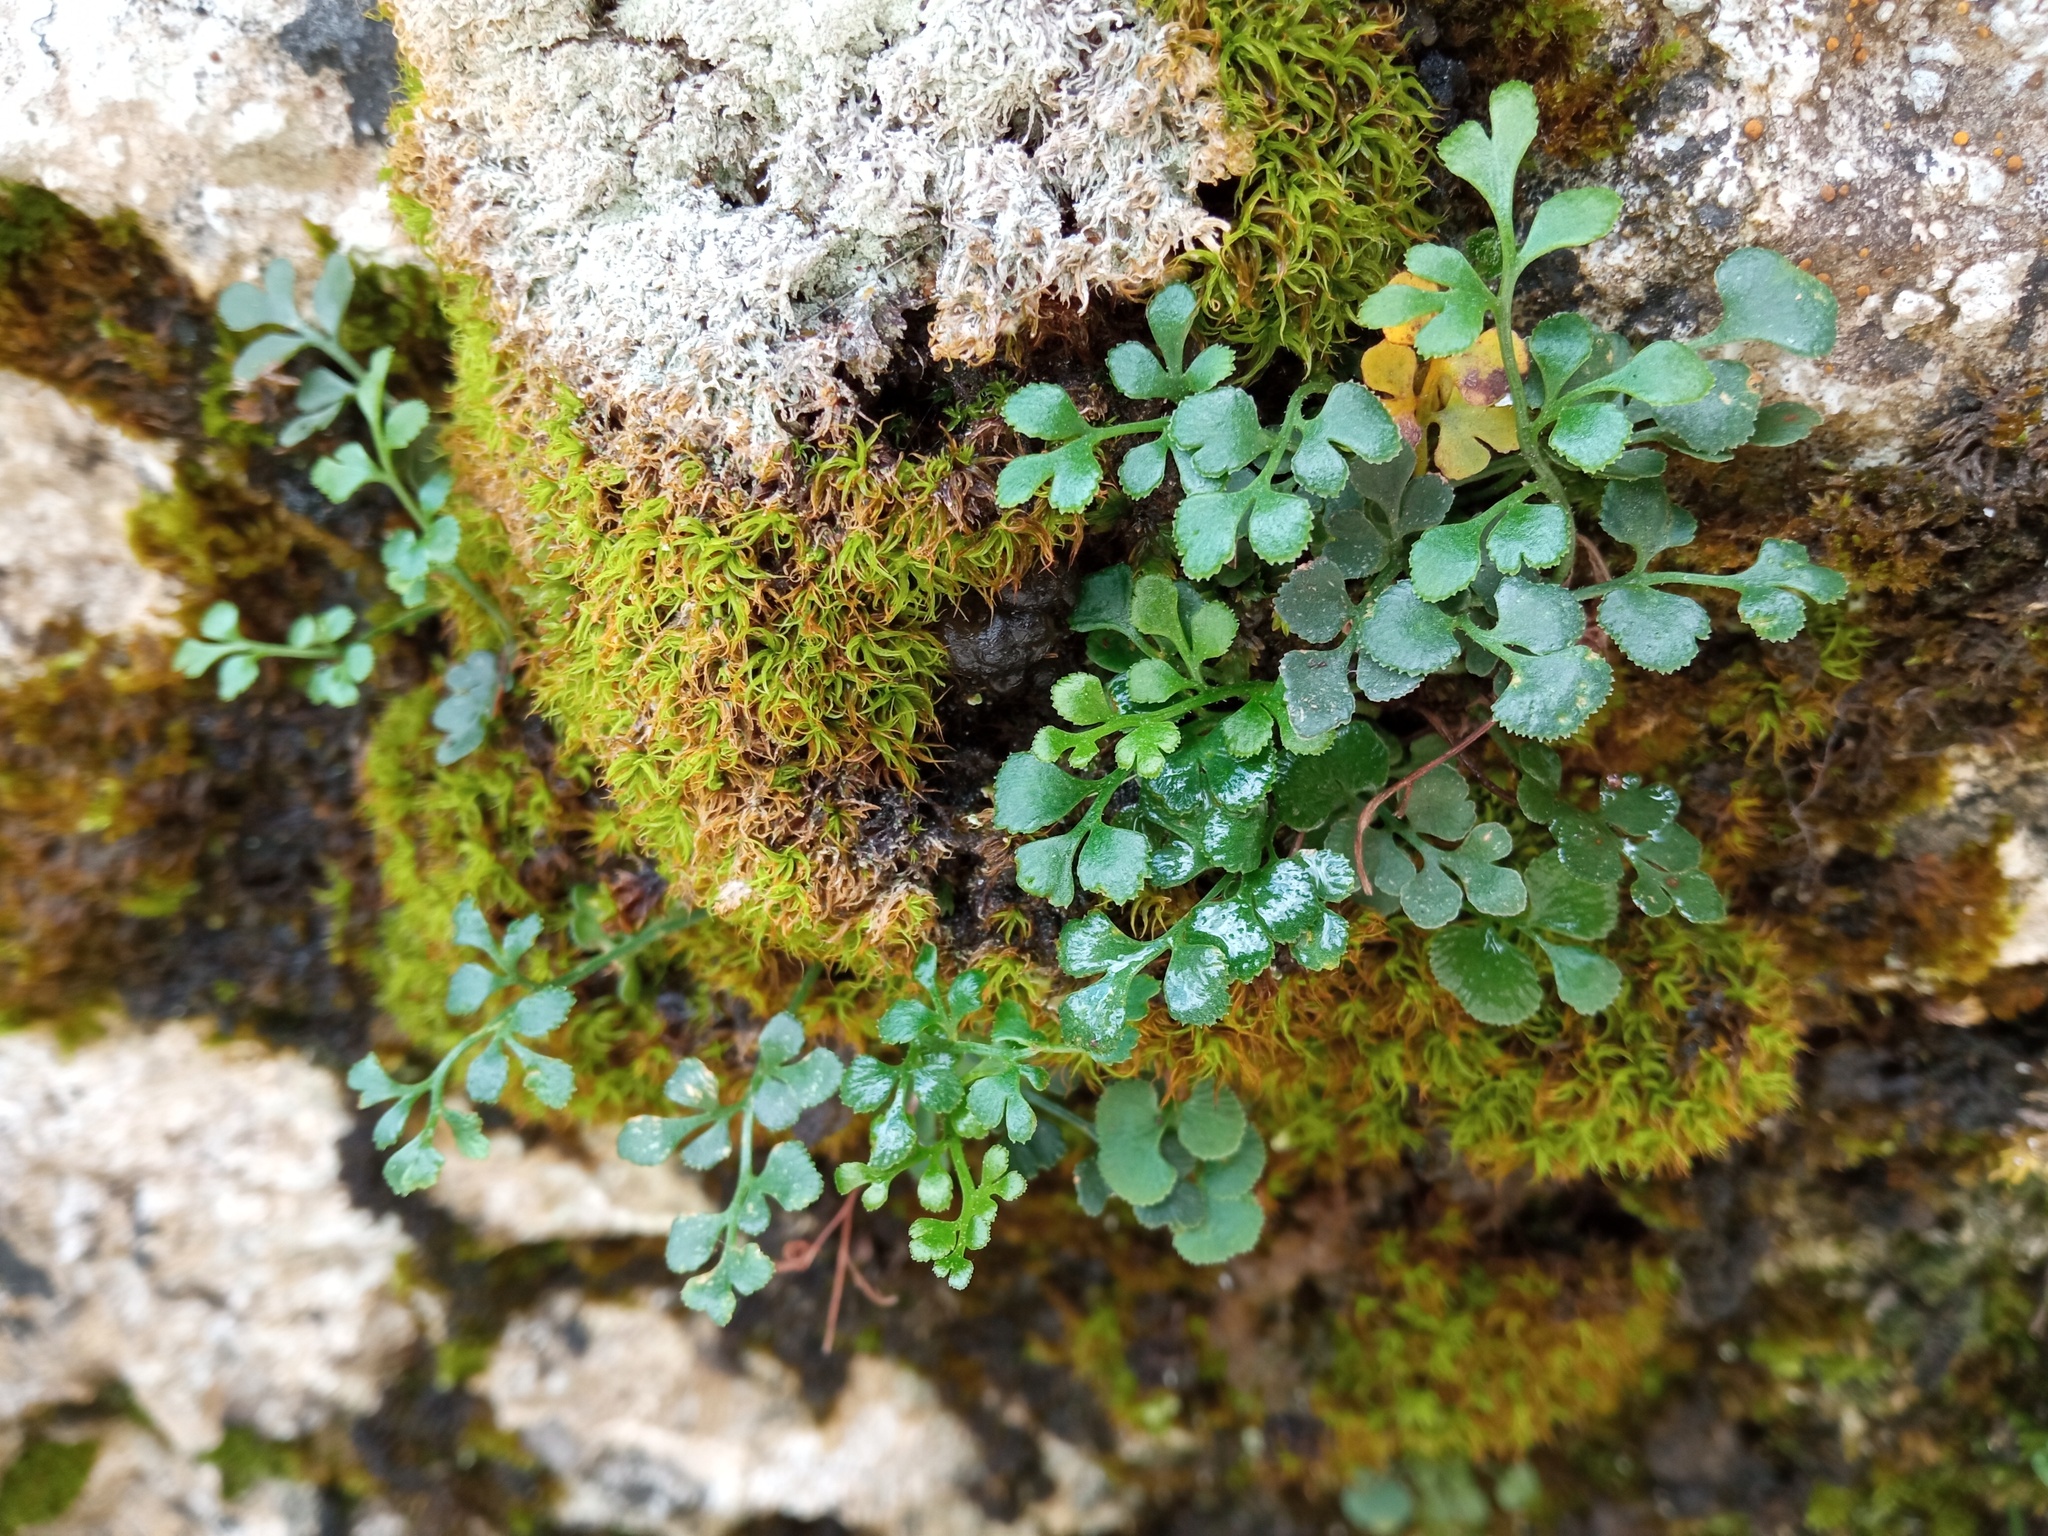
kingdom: Plantae
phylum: Tracheophyta
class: Polypodiopsida
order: Polypodiales
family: Aspleniaceae
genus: Asplenium
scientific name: Asplenium ruta-muraria
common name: Wall-rue
